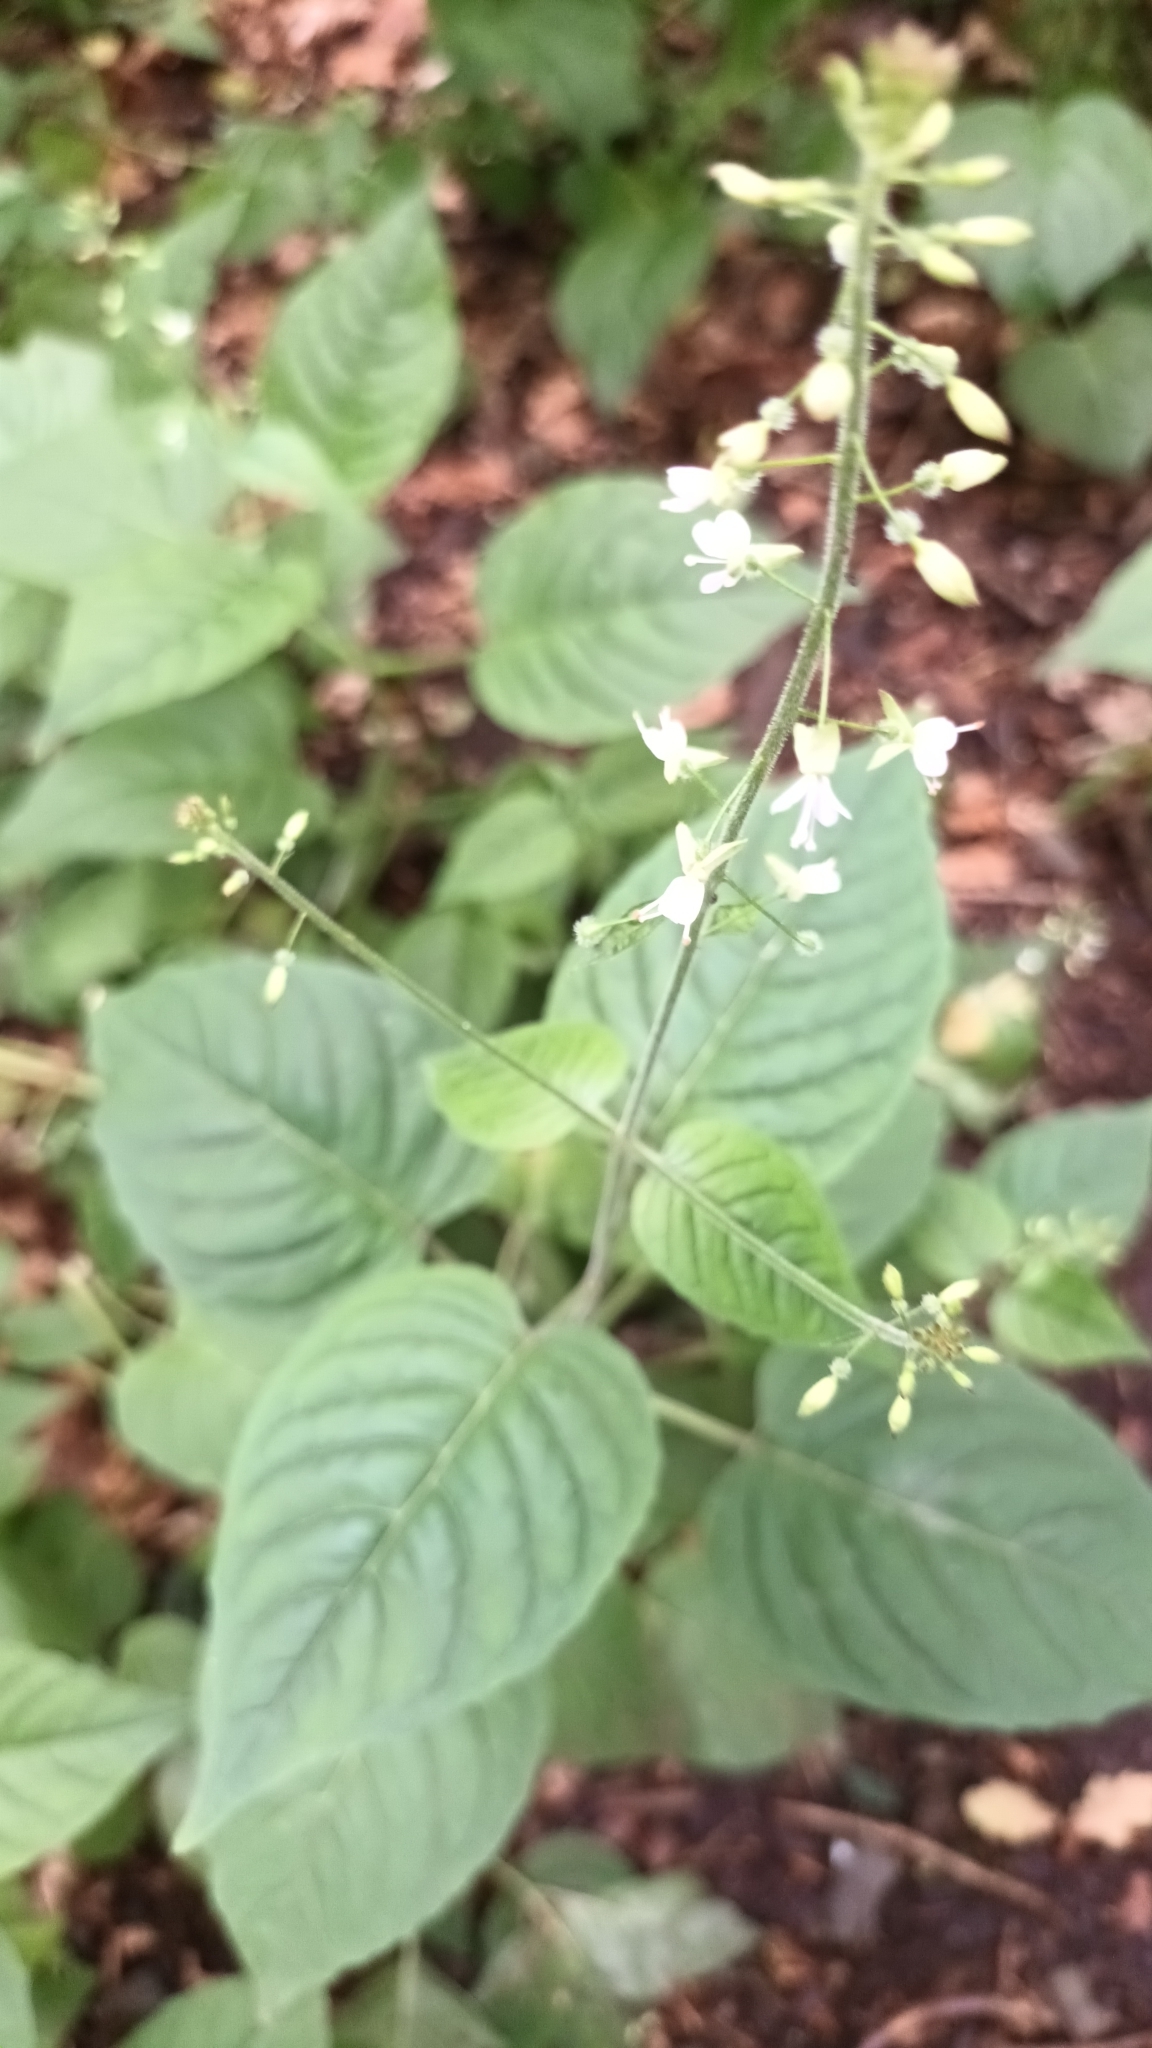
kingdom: Plantae
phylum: Tracheophyta
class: Magnoliopsida
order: Myrtales
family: Onagraceae
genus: Circaea
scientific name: Circaea lutetiana
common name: Enchanter's-nightshade
